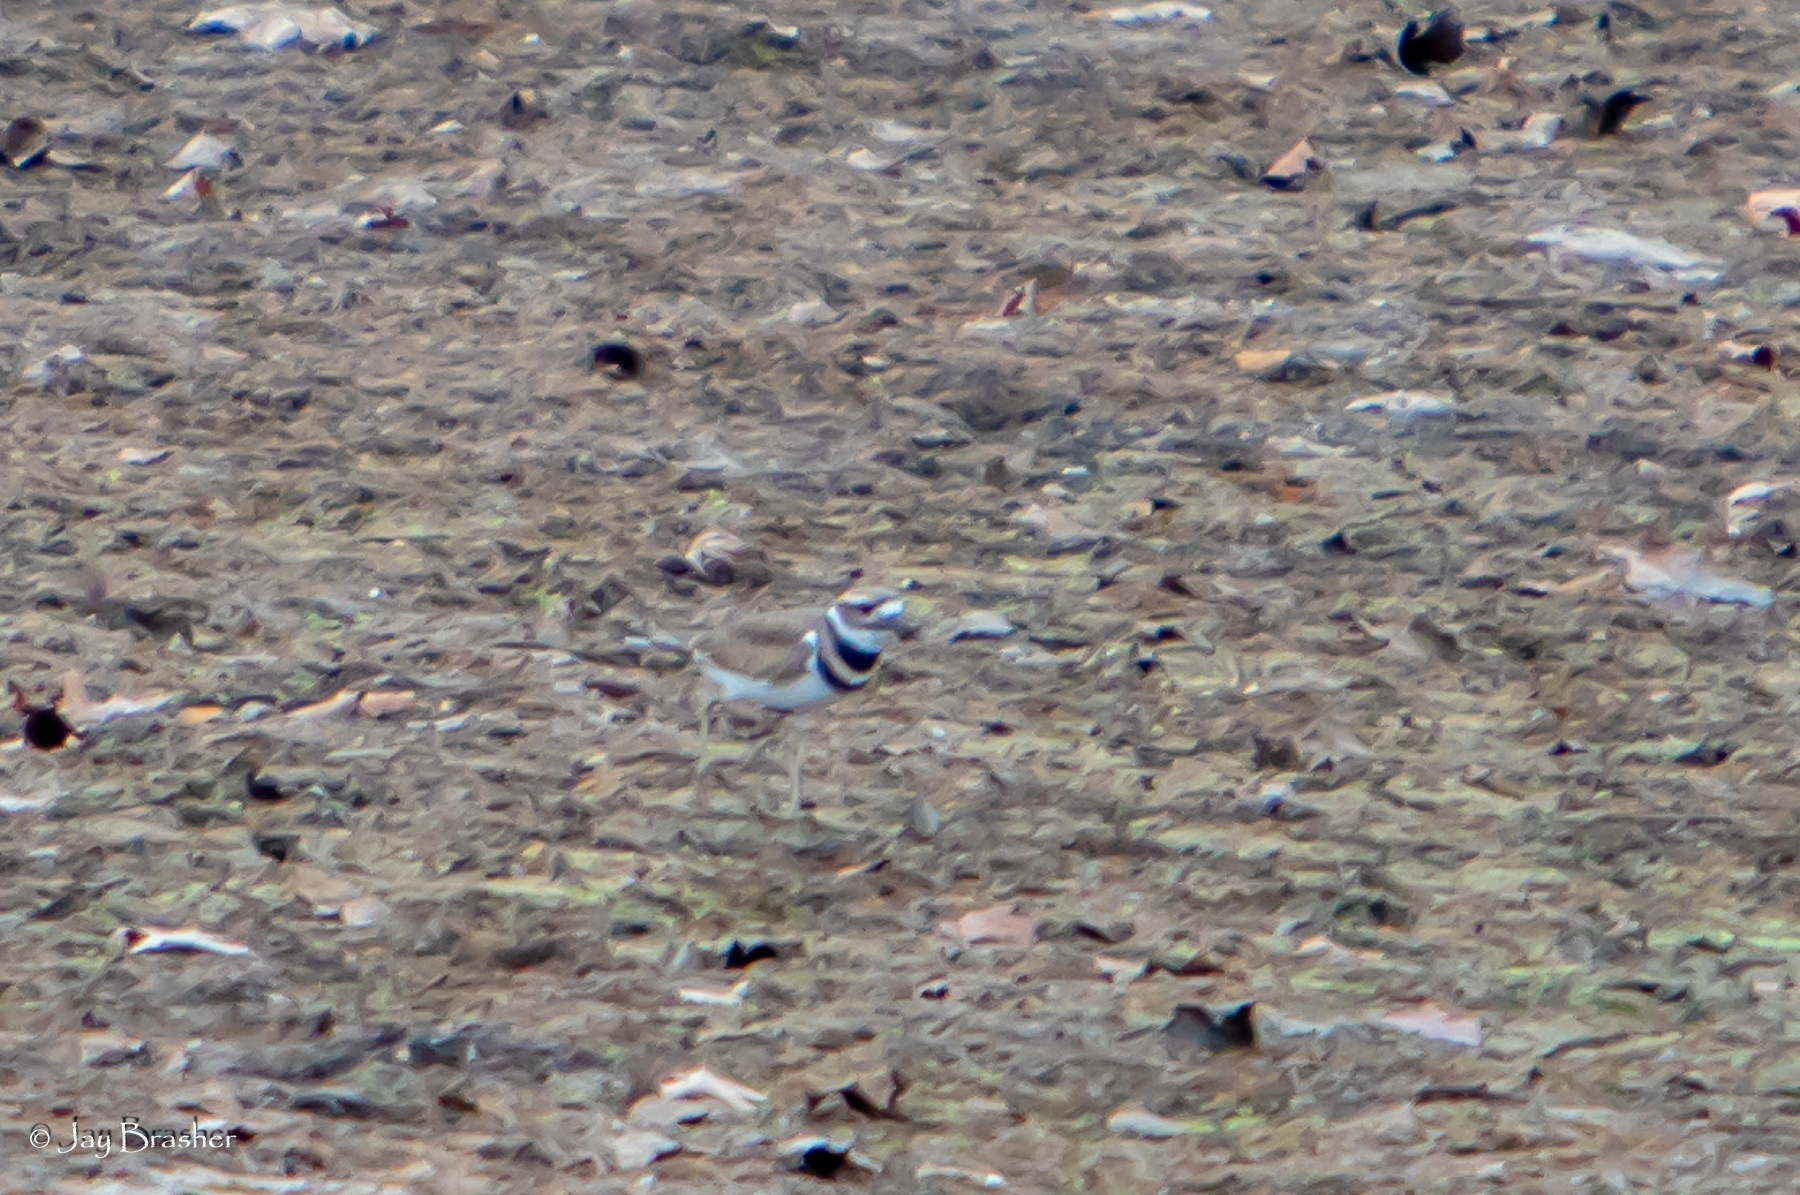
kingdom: Animalia
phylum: Chordata
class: Aves
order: Charadriiformes
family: Charadriidae
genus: Charadrius
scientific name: Charadrius vociferus
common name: Killdeer
